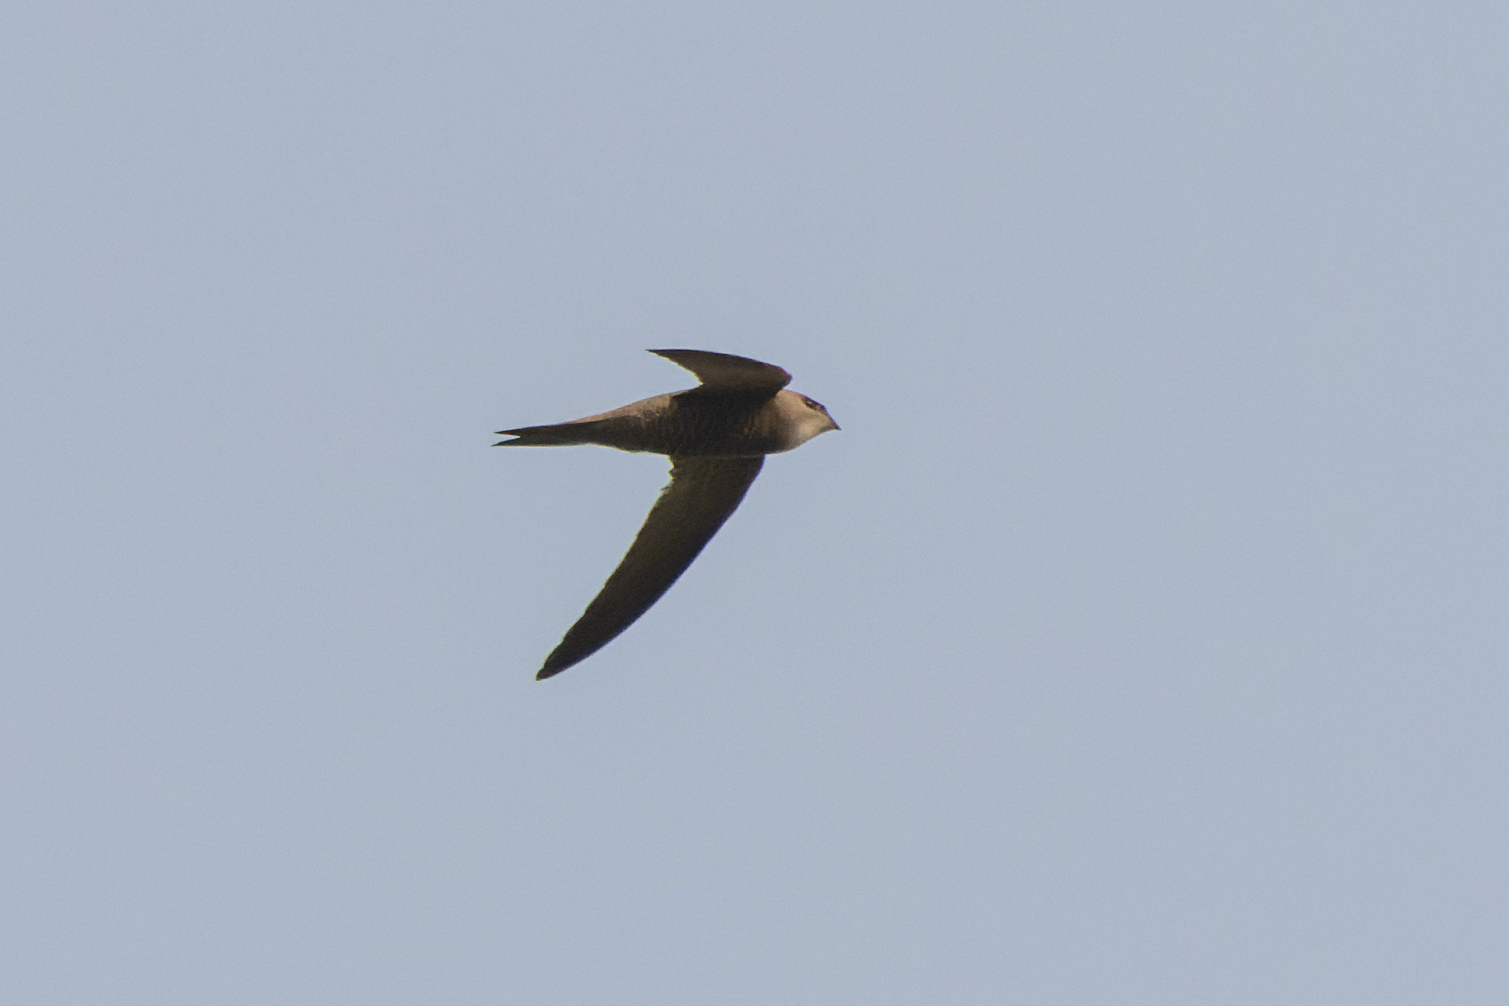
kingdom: Animalia
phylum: Chordata
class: Aves
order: Apodiformes
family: Apodidae
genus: Apus
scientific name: Apus pallidus
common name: Pallid swift
